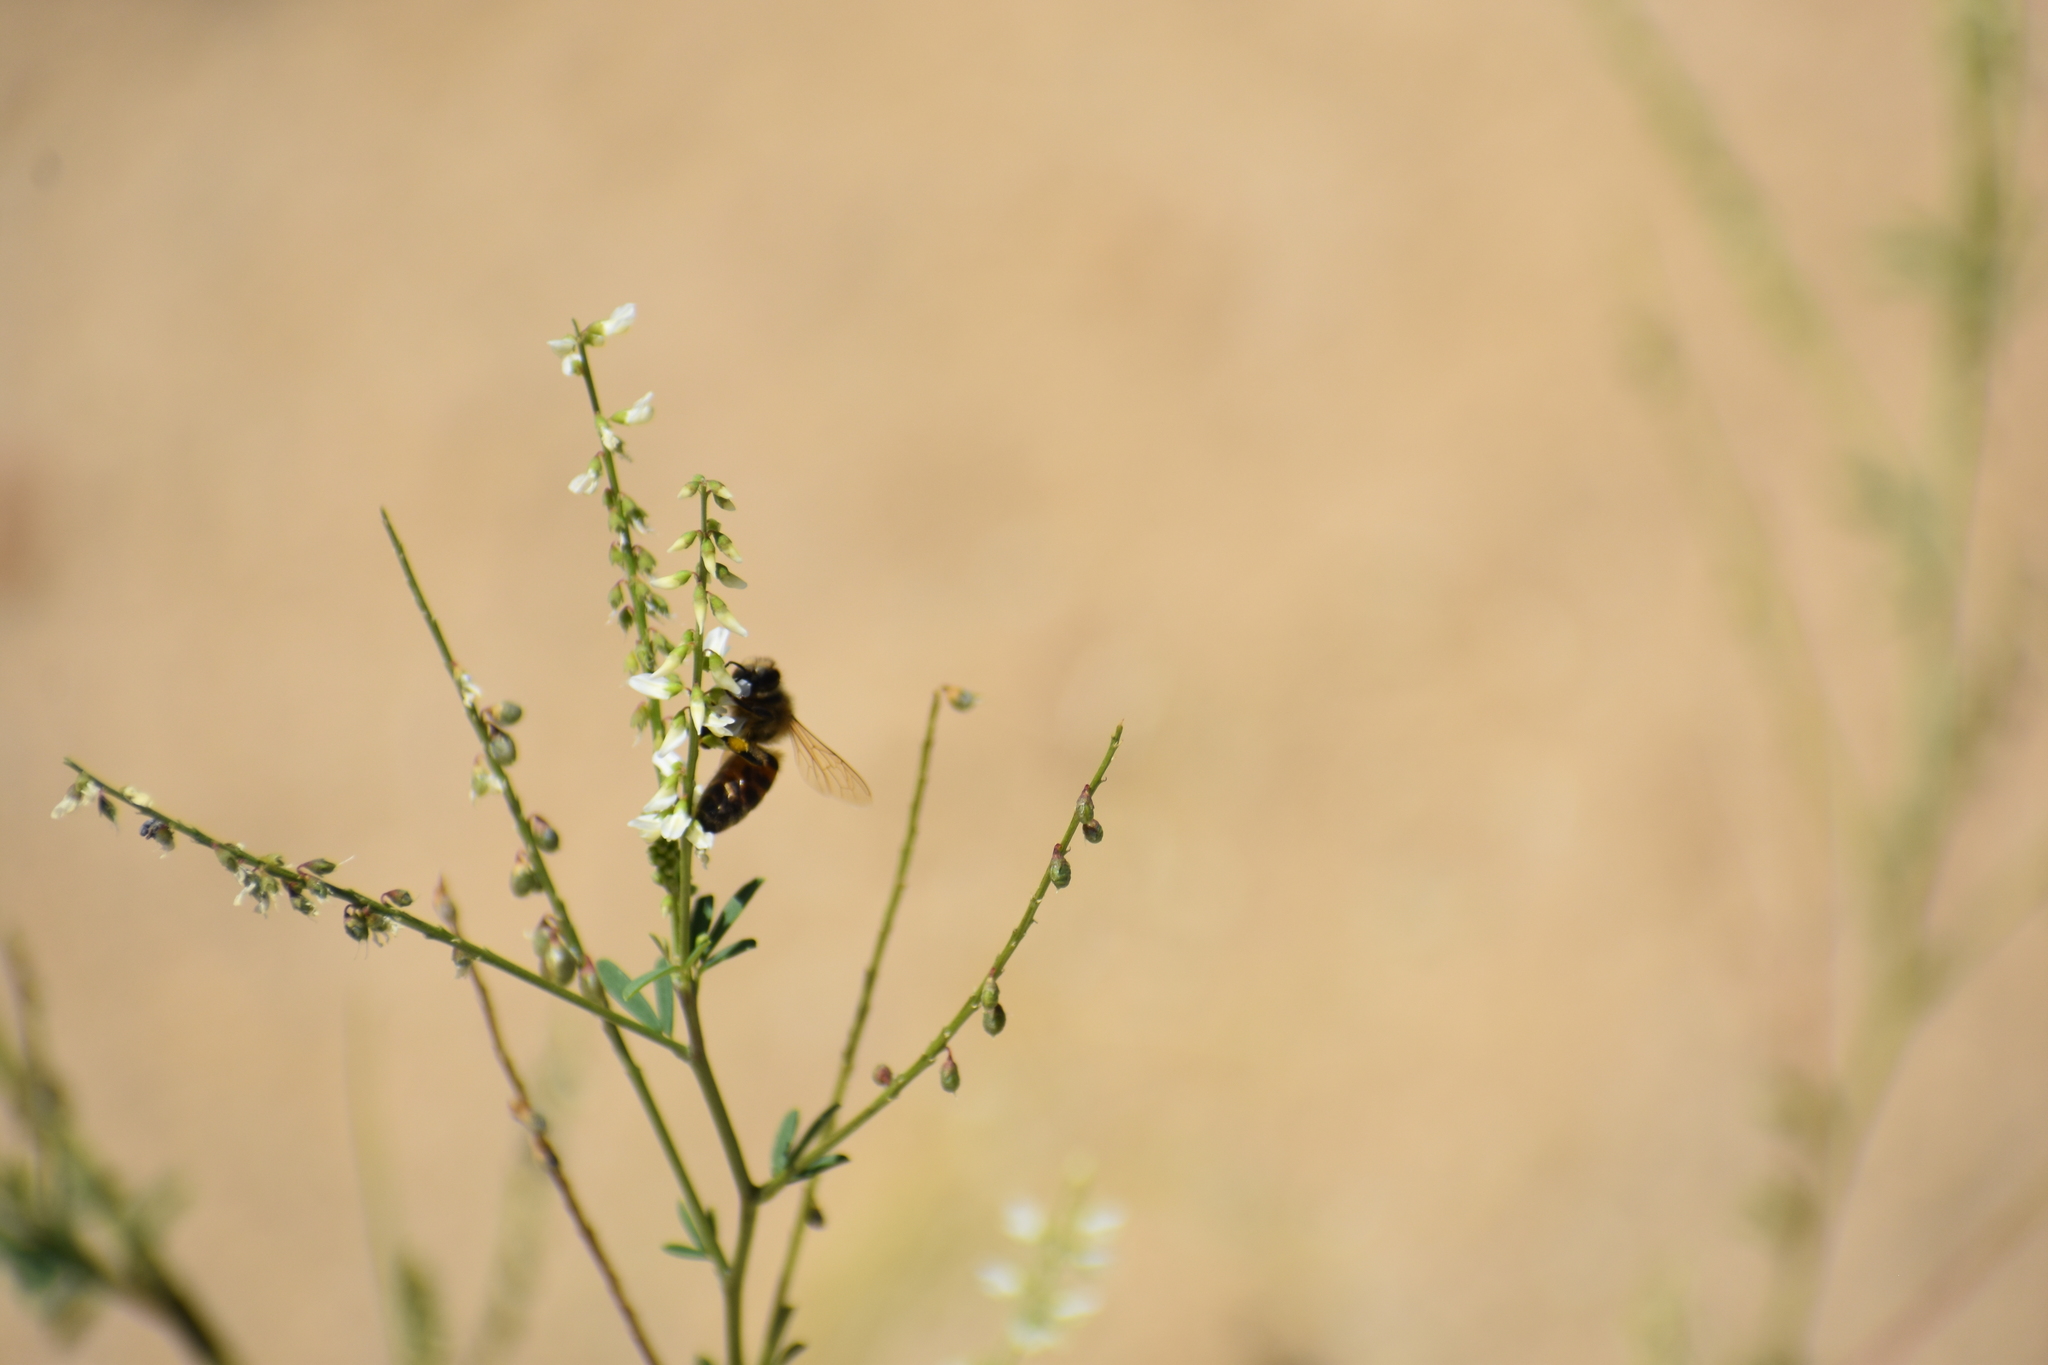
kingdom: Animalia
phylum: Arthropoda
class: Insecta
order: Hymenoptera
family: Apidae
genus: Apis
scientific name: Apis mellifera
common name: Honey bee
